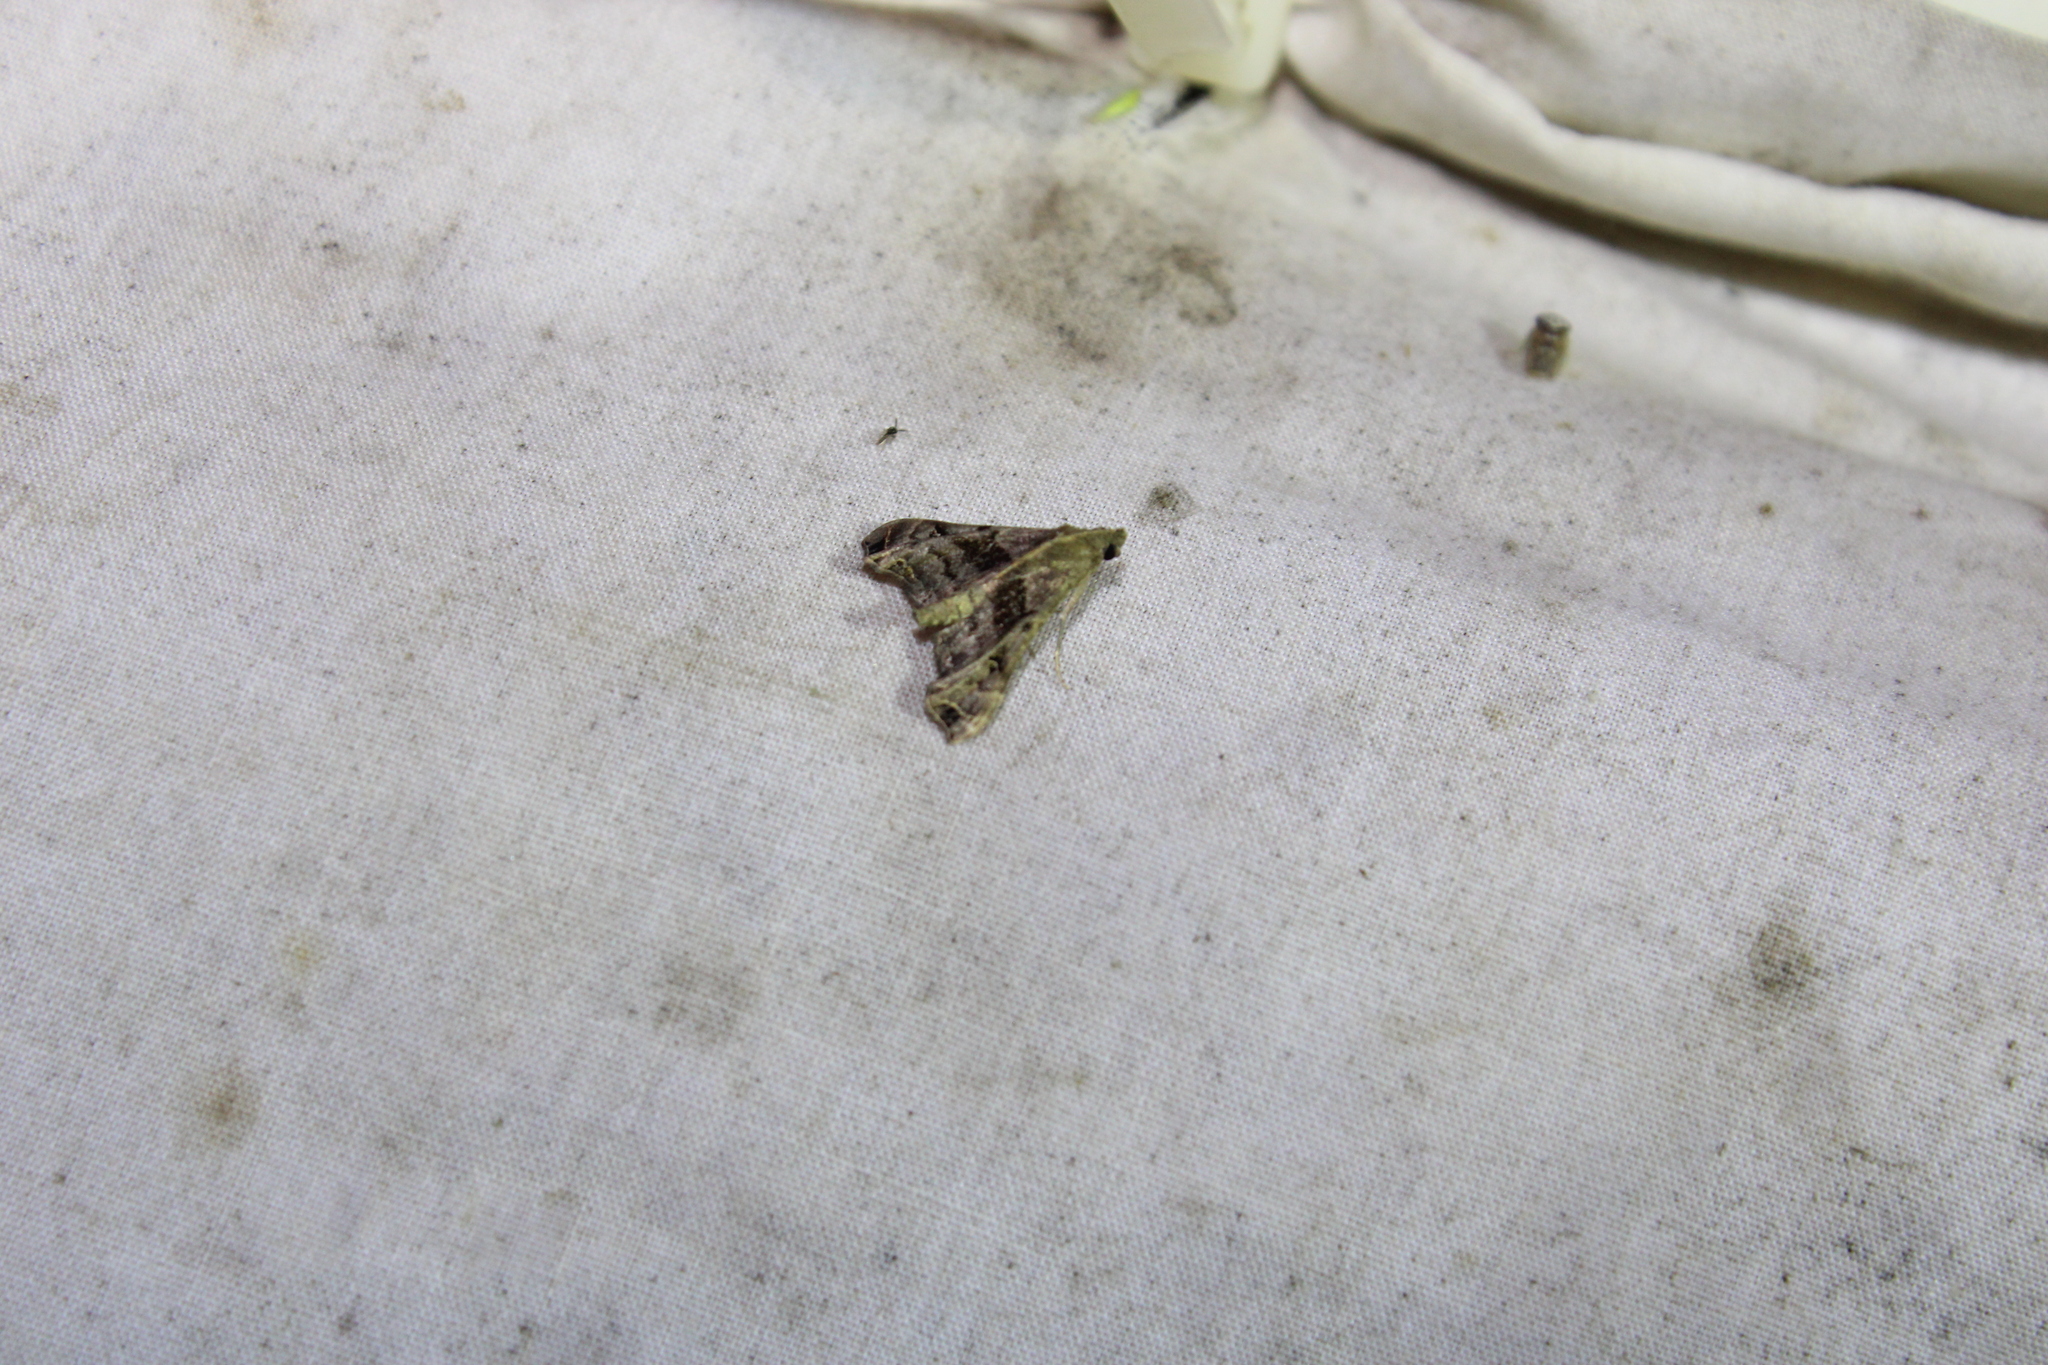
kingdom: Animalia
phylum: Arthropoda
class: Insecta
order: Lepidoptera
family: Erebidae
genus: Palthis
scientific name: Palthis asopialis
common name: Faint-spotted palthis moth
